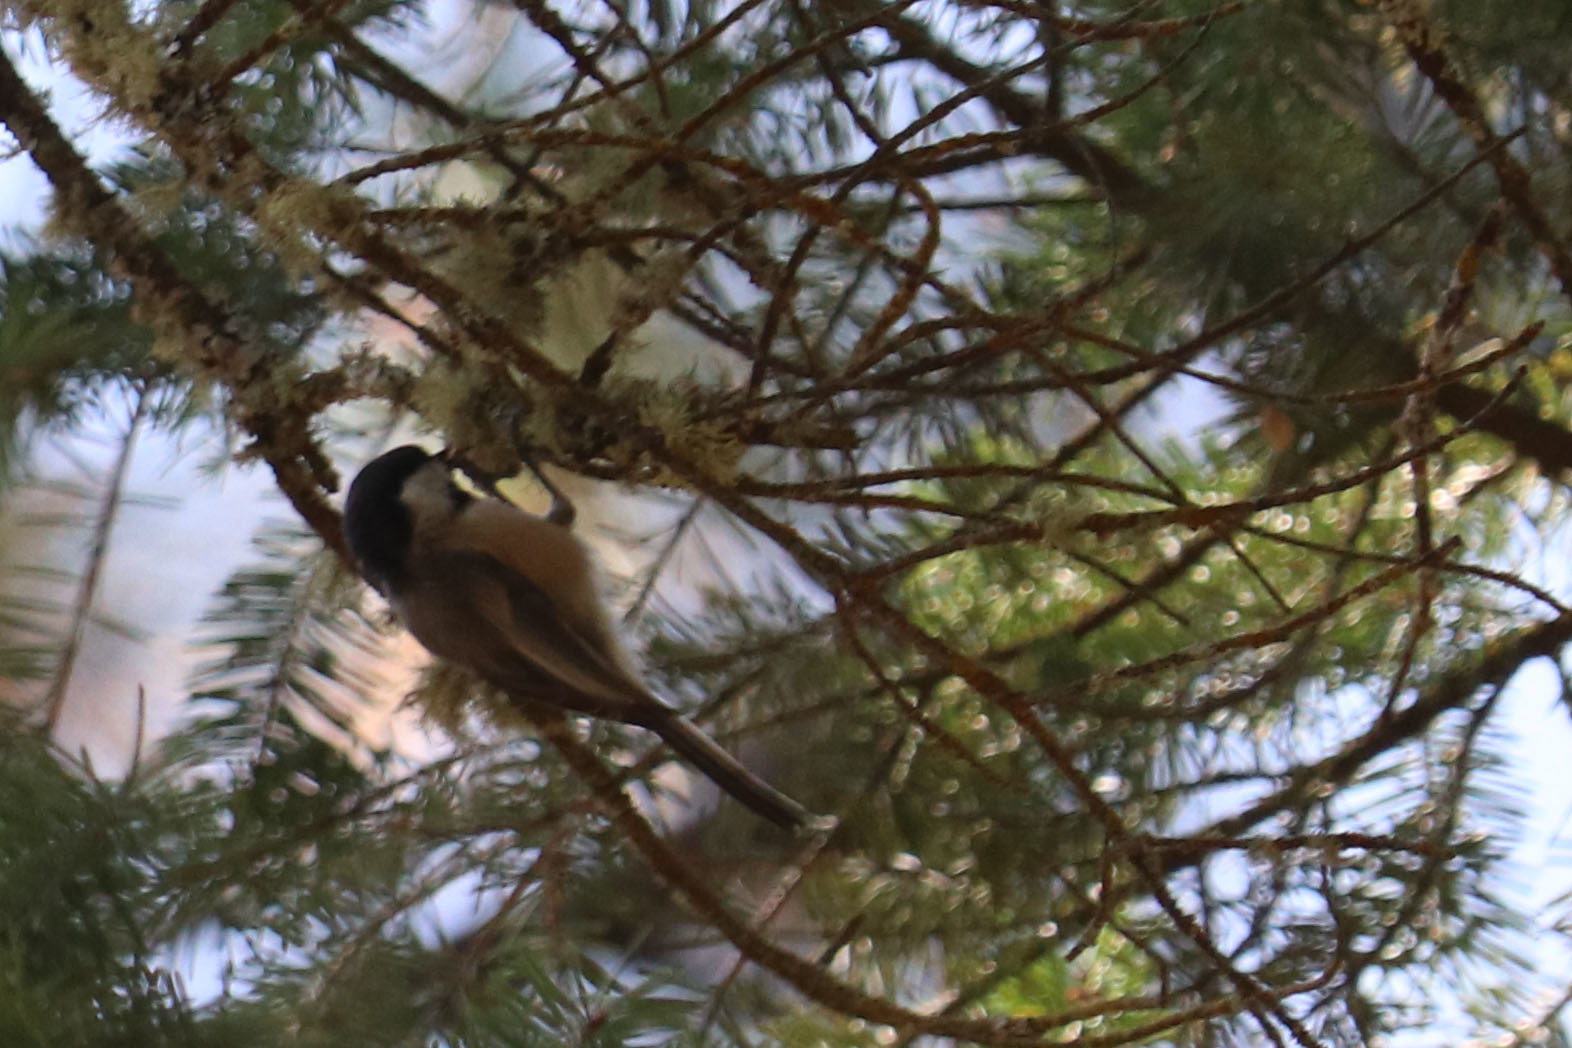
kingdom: Animalia
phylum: Chordata
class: Aves
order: Passeriformes
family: Paridae
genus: Poecile
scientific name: Poecile atricapillus
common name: Black-capped chickadee
